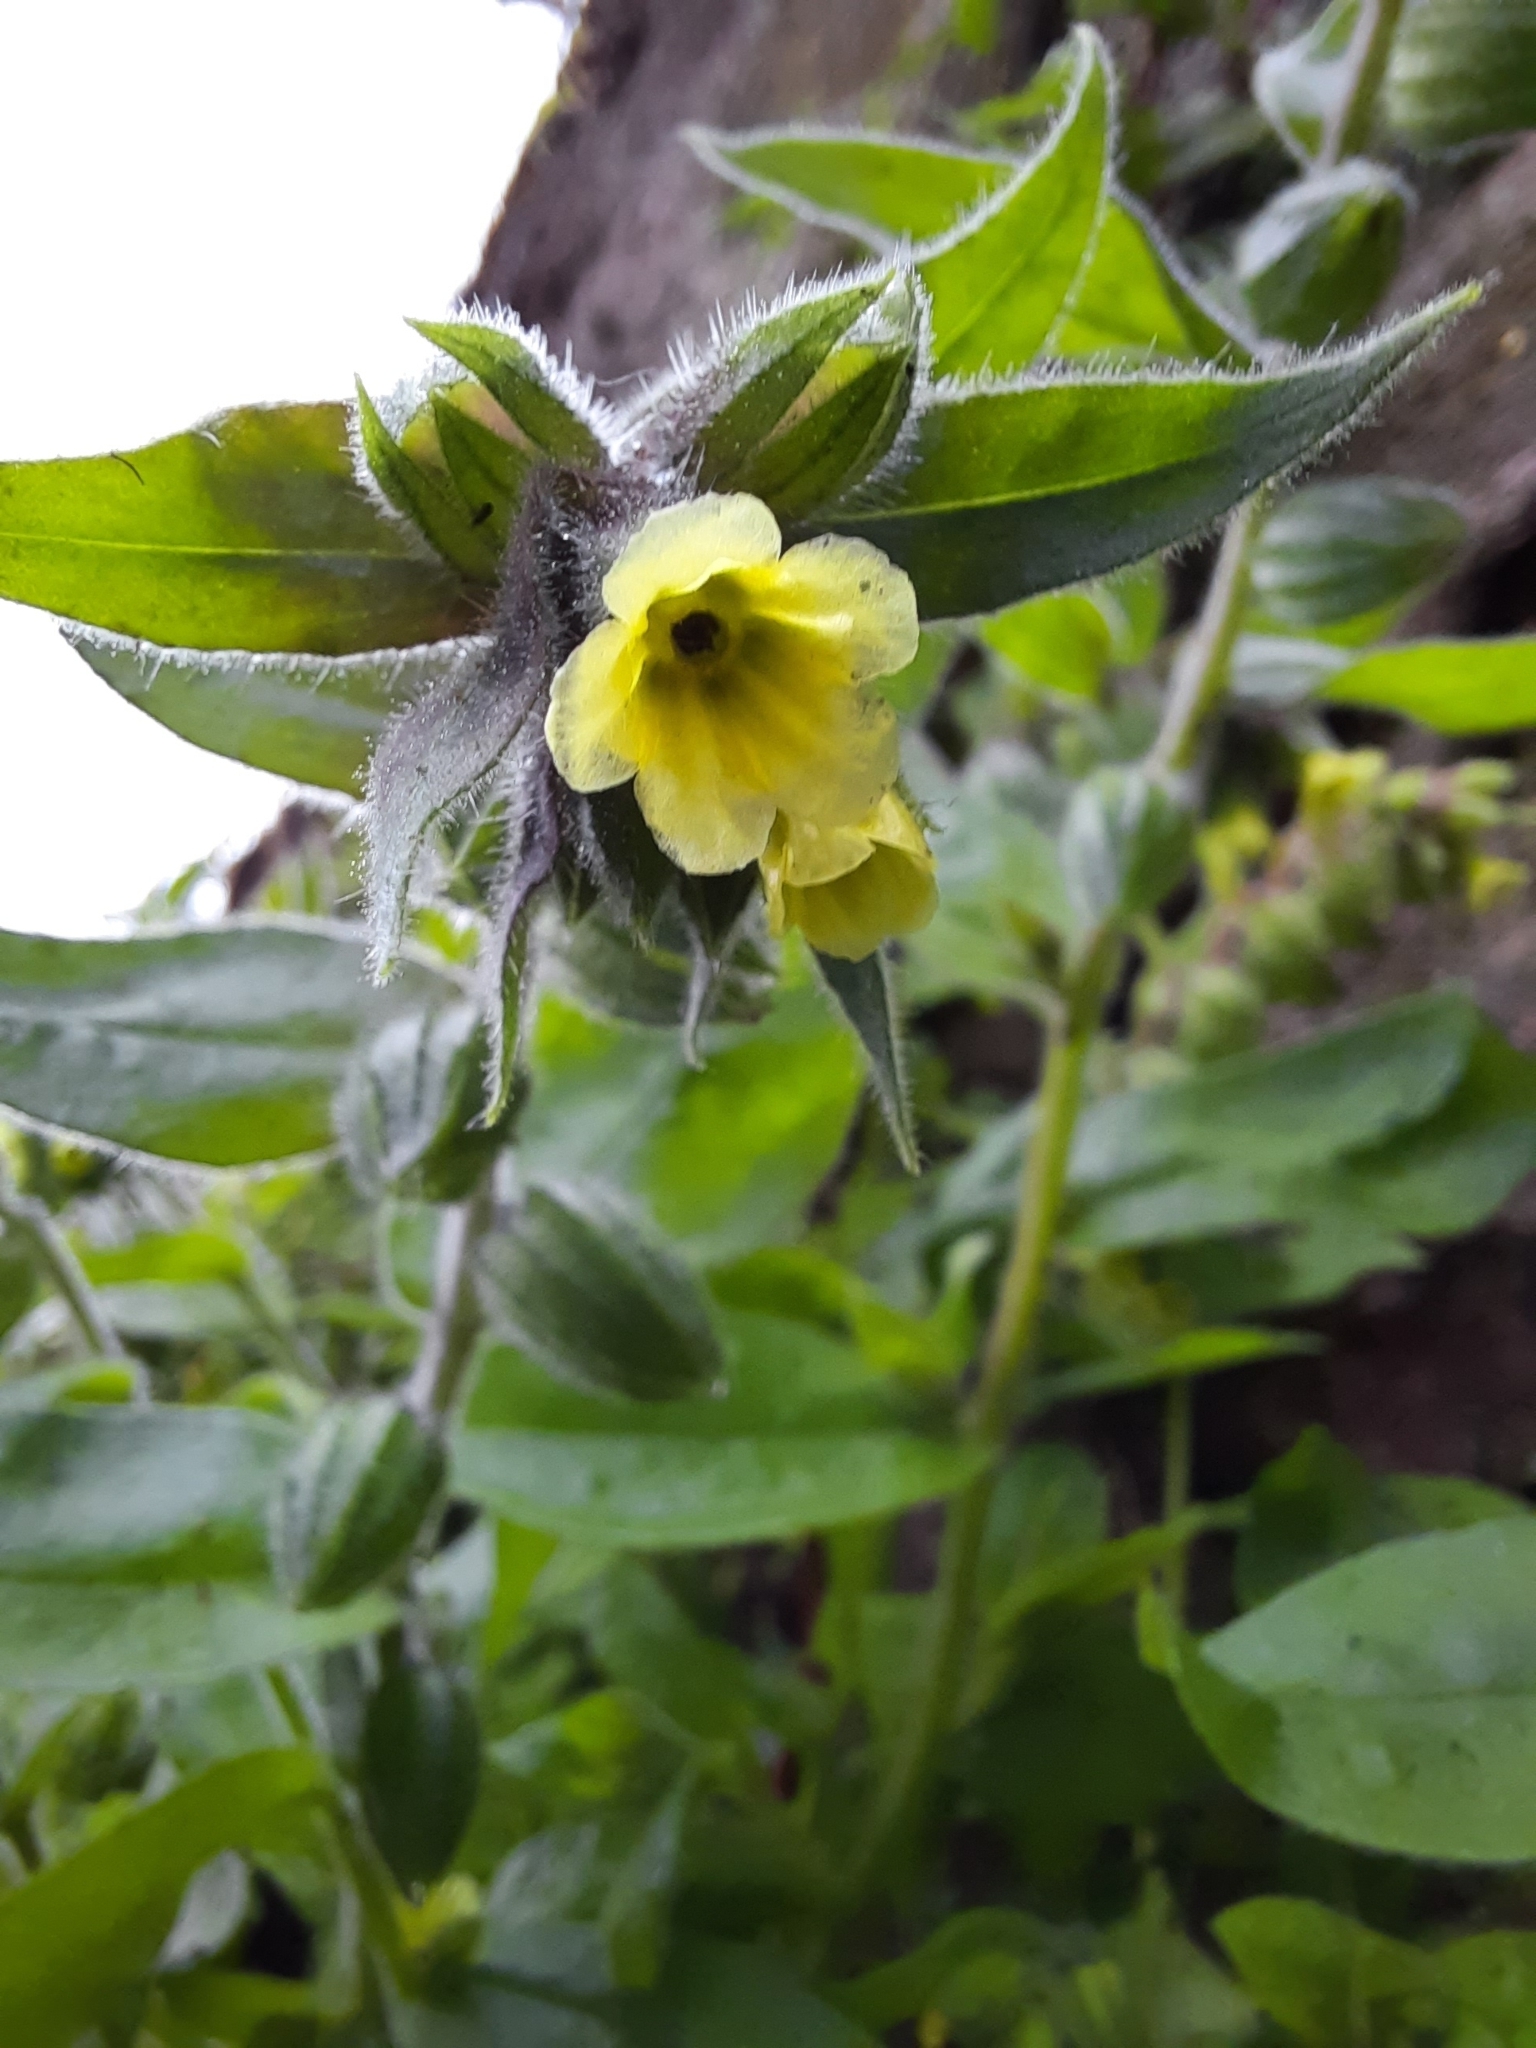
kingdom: Plantae
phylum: Tracheophyta
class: Magnoliopsida
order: Boraginales
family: Boraginaceae
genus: Nonea
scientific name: Nonea lutea
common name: Yellow nonea
